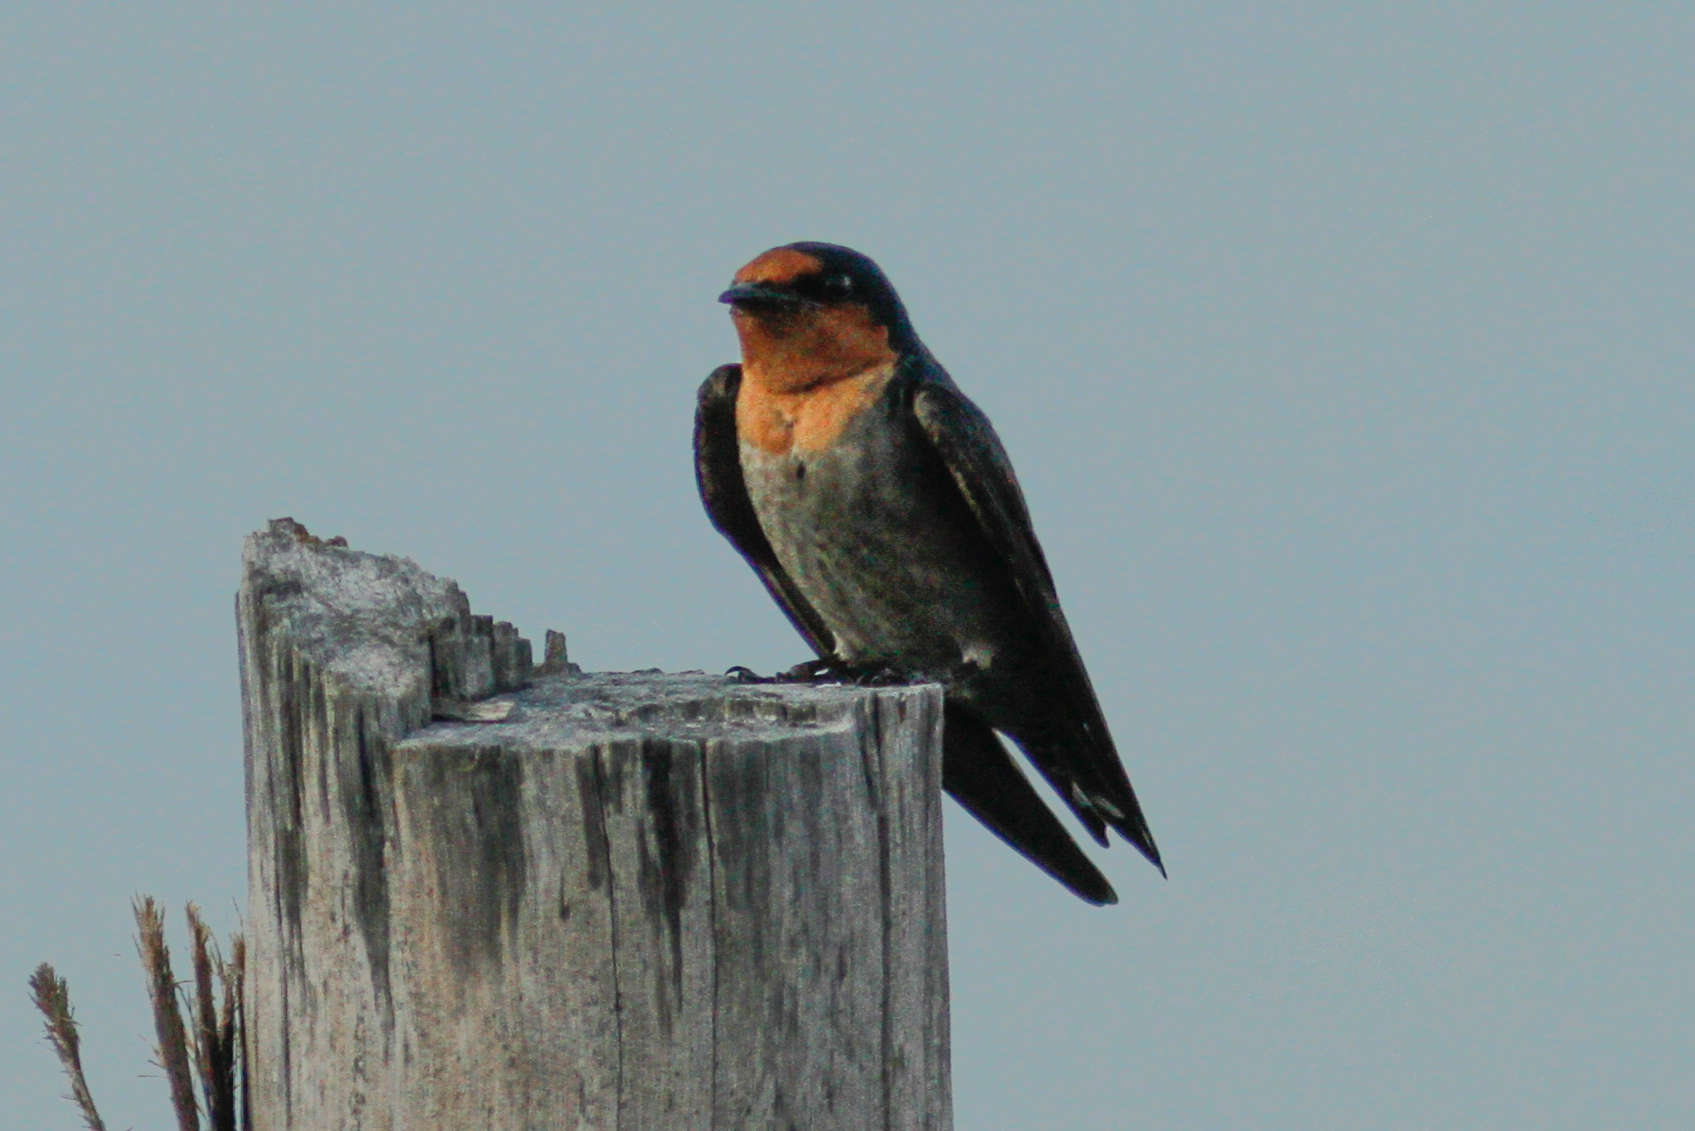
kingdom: Animalia
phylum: Chordata
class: Aves
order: Passeriformes
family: Hirundinidae
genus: Hirundo
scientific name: Hirundo tahitica
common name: Pacific swallow
